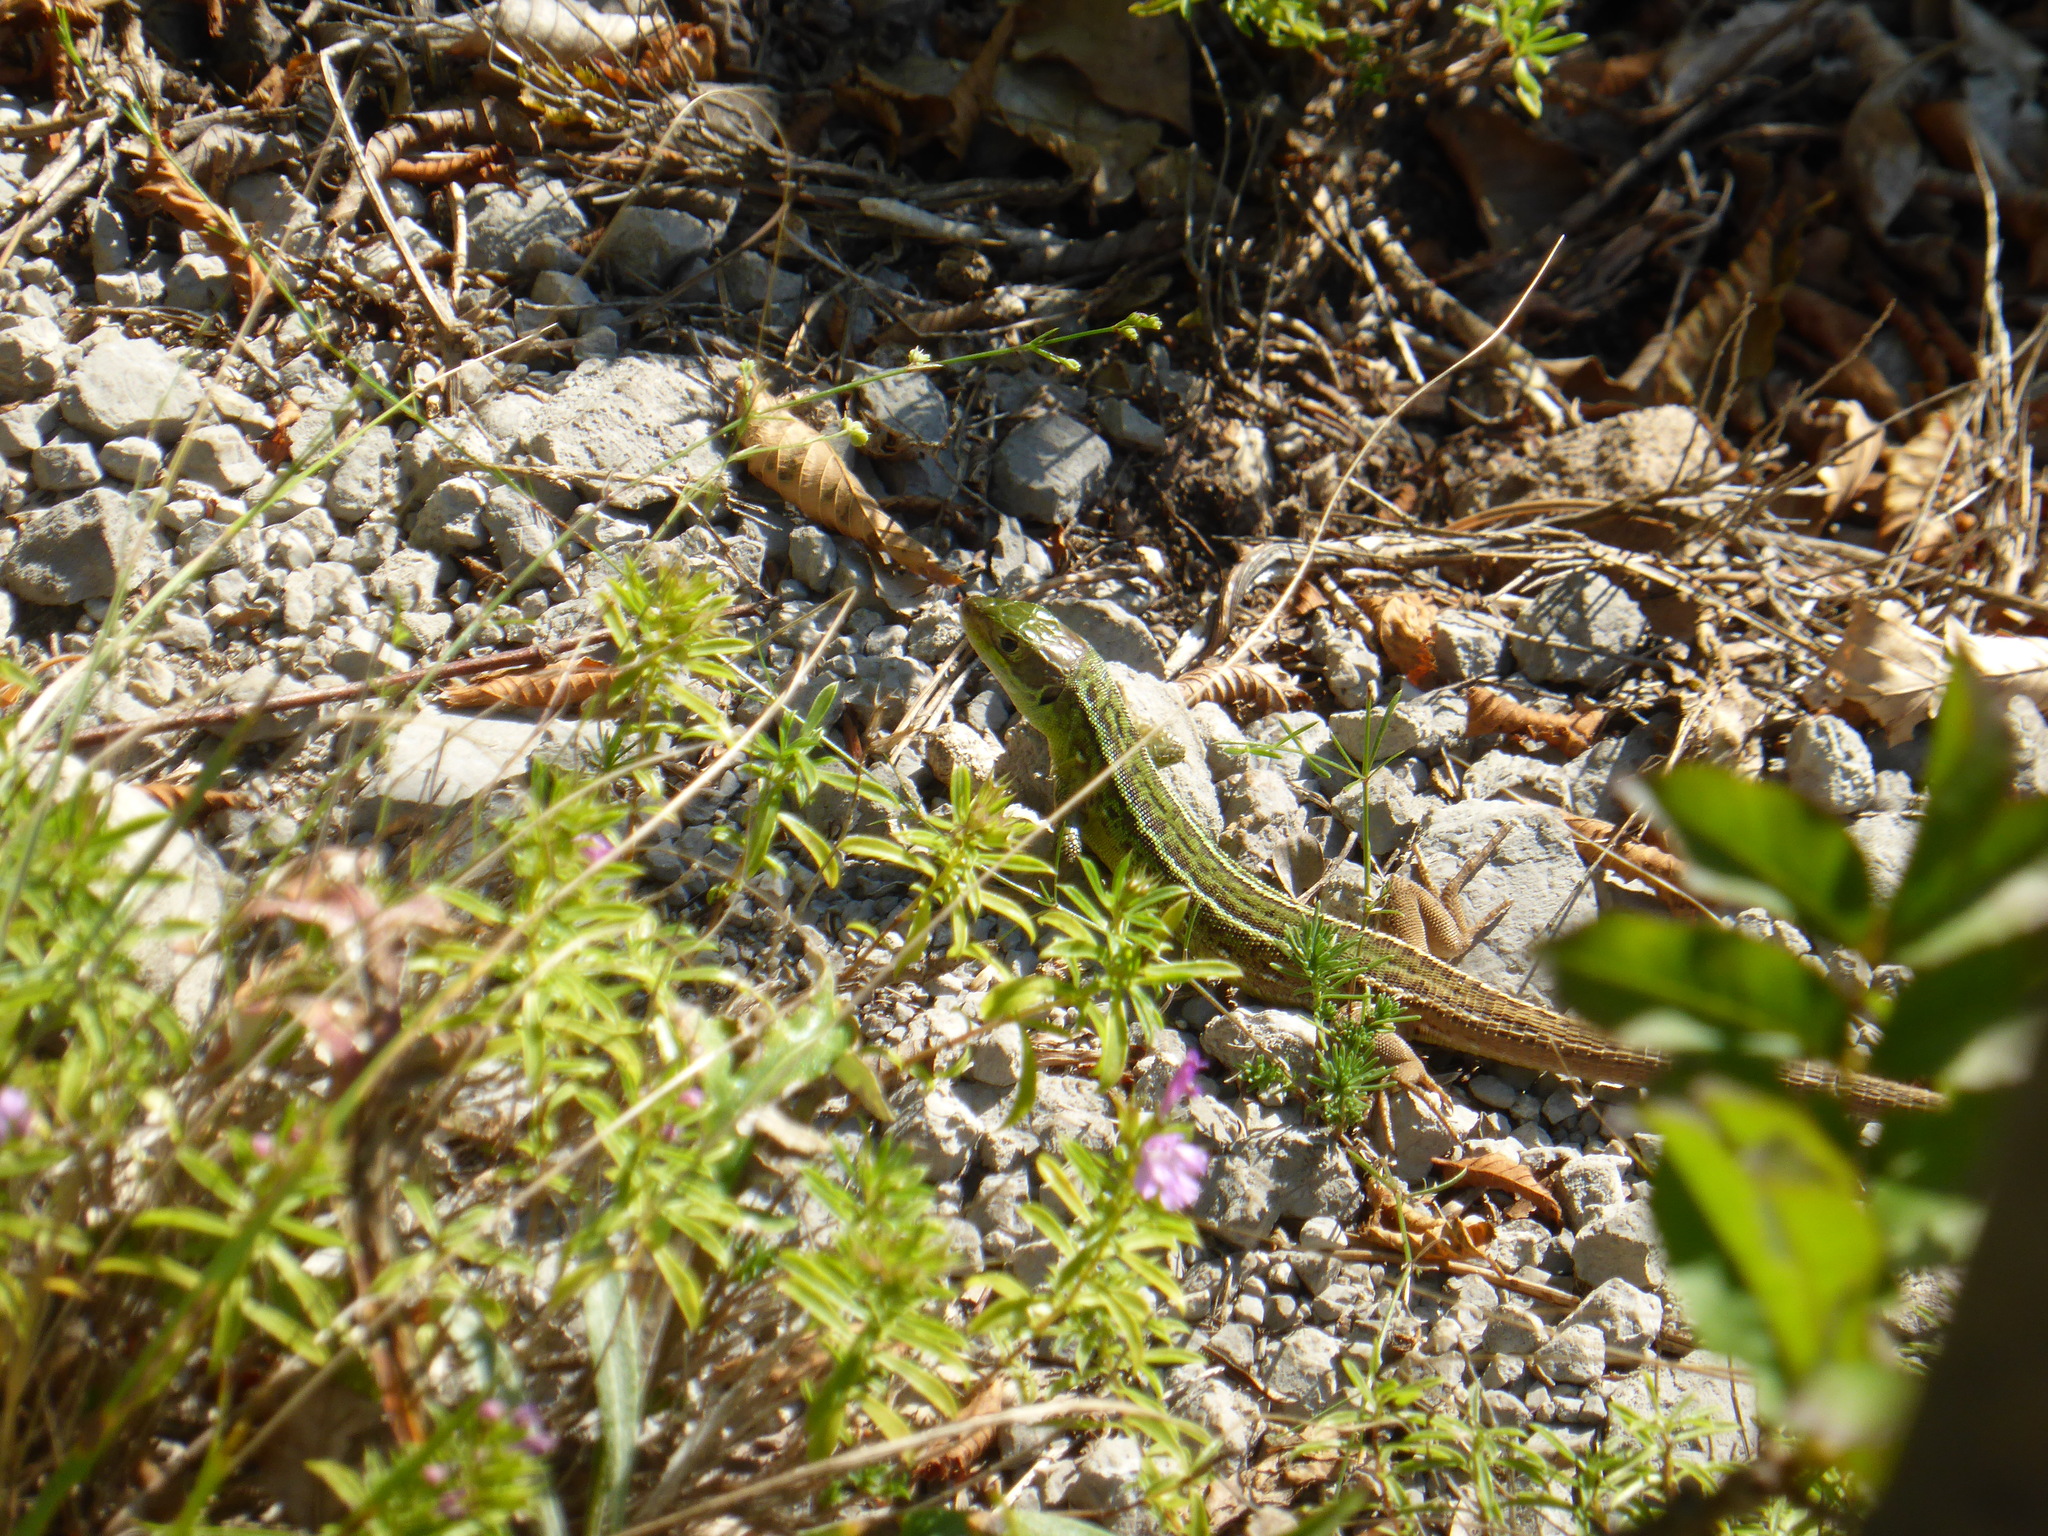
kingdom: Animalia
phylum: Chordata
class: Squamata
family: Lacertidae
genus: Lacerta
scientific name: Lacerta viridis
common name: European green lizard
